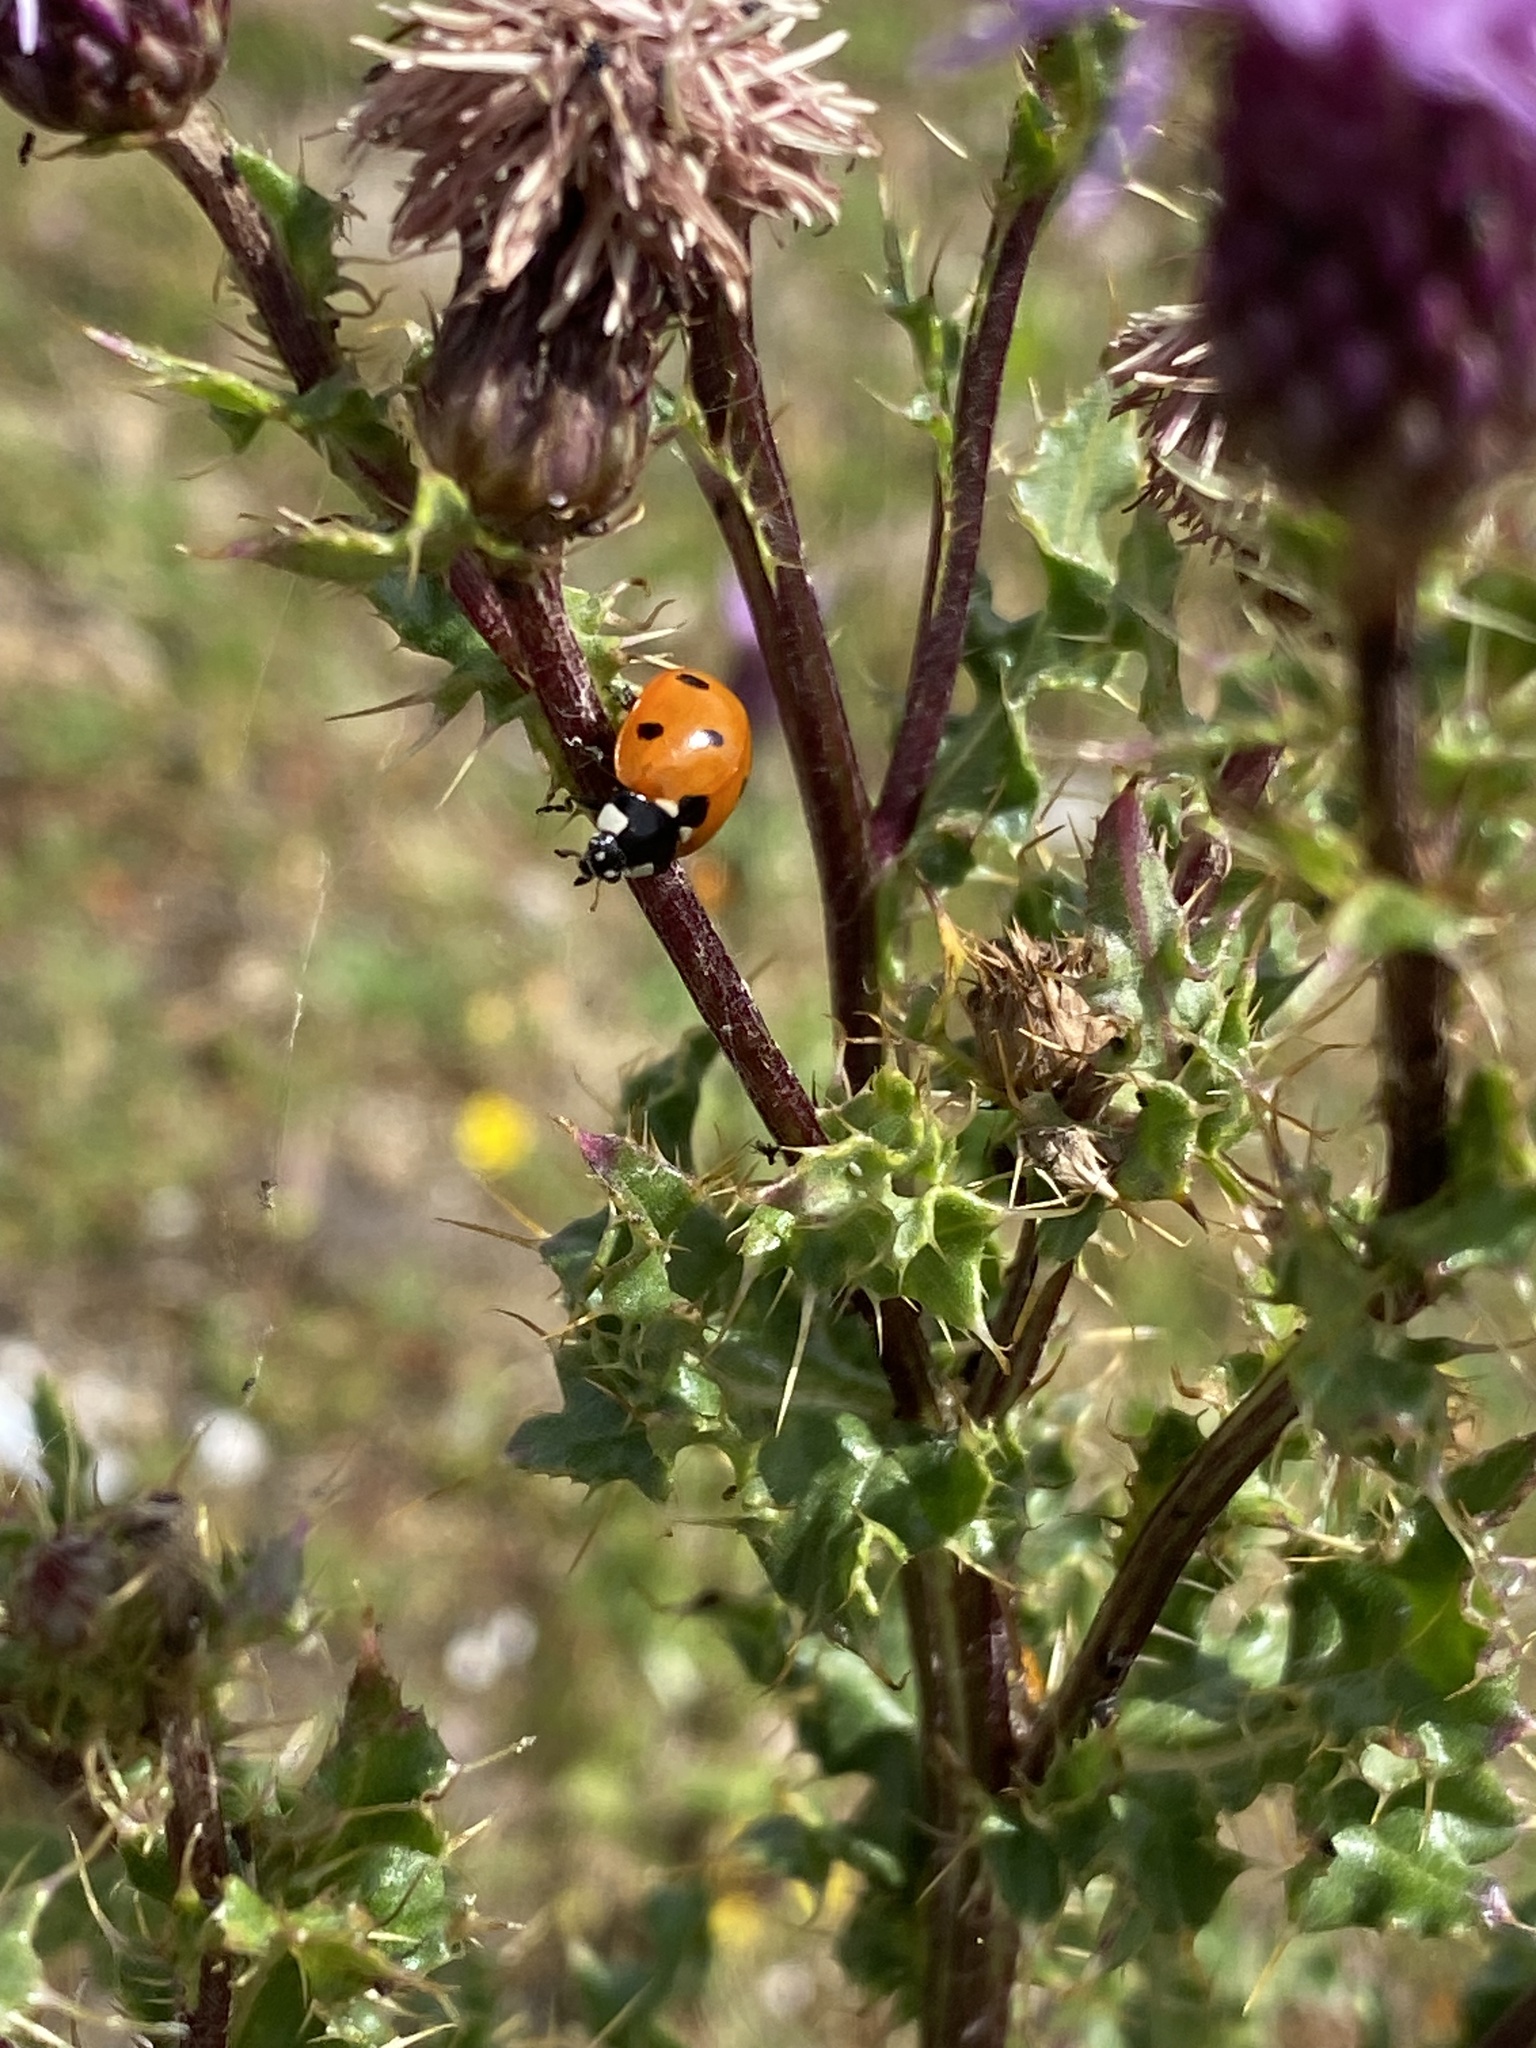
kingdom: Animalia
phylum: Arthropoda
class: Insecta
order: Coleoptera
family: Coccinellidae
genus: Coccinella
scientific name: Coccinella septempunctata
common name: Sevenspotted lady beetle
